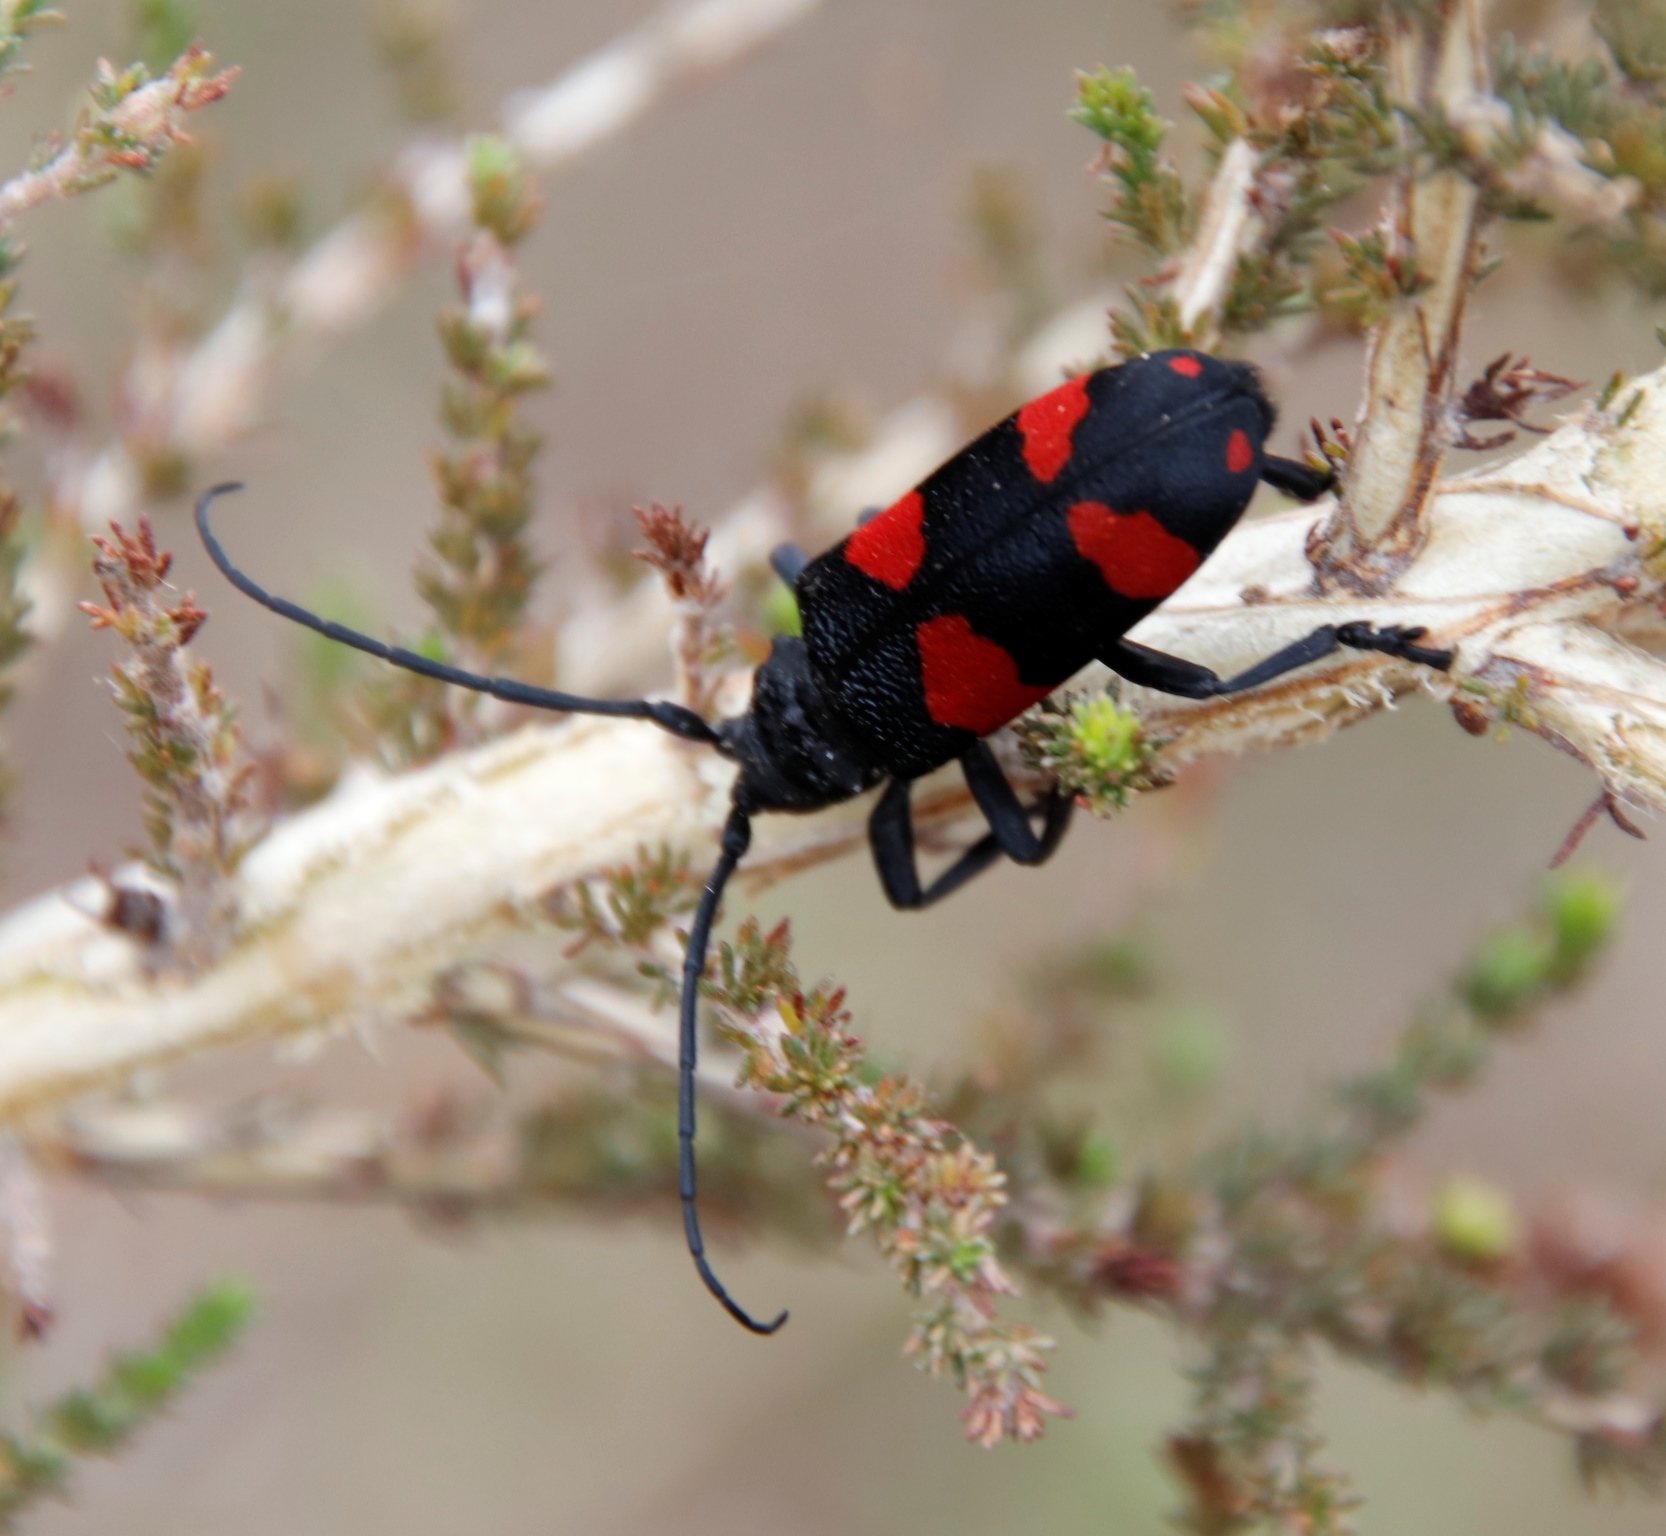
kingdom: Animalia
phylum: Arthropoda
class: Insecta
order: Coleoptera
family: Cerambycidae
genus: Ceroplesis
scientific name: Ceroplesis aethiops
